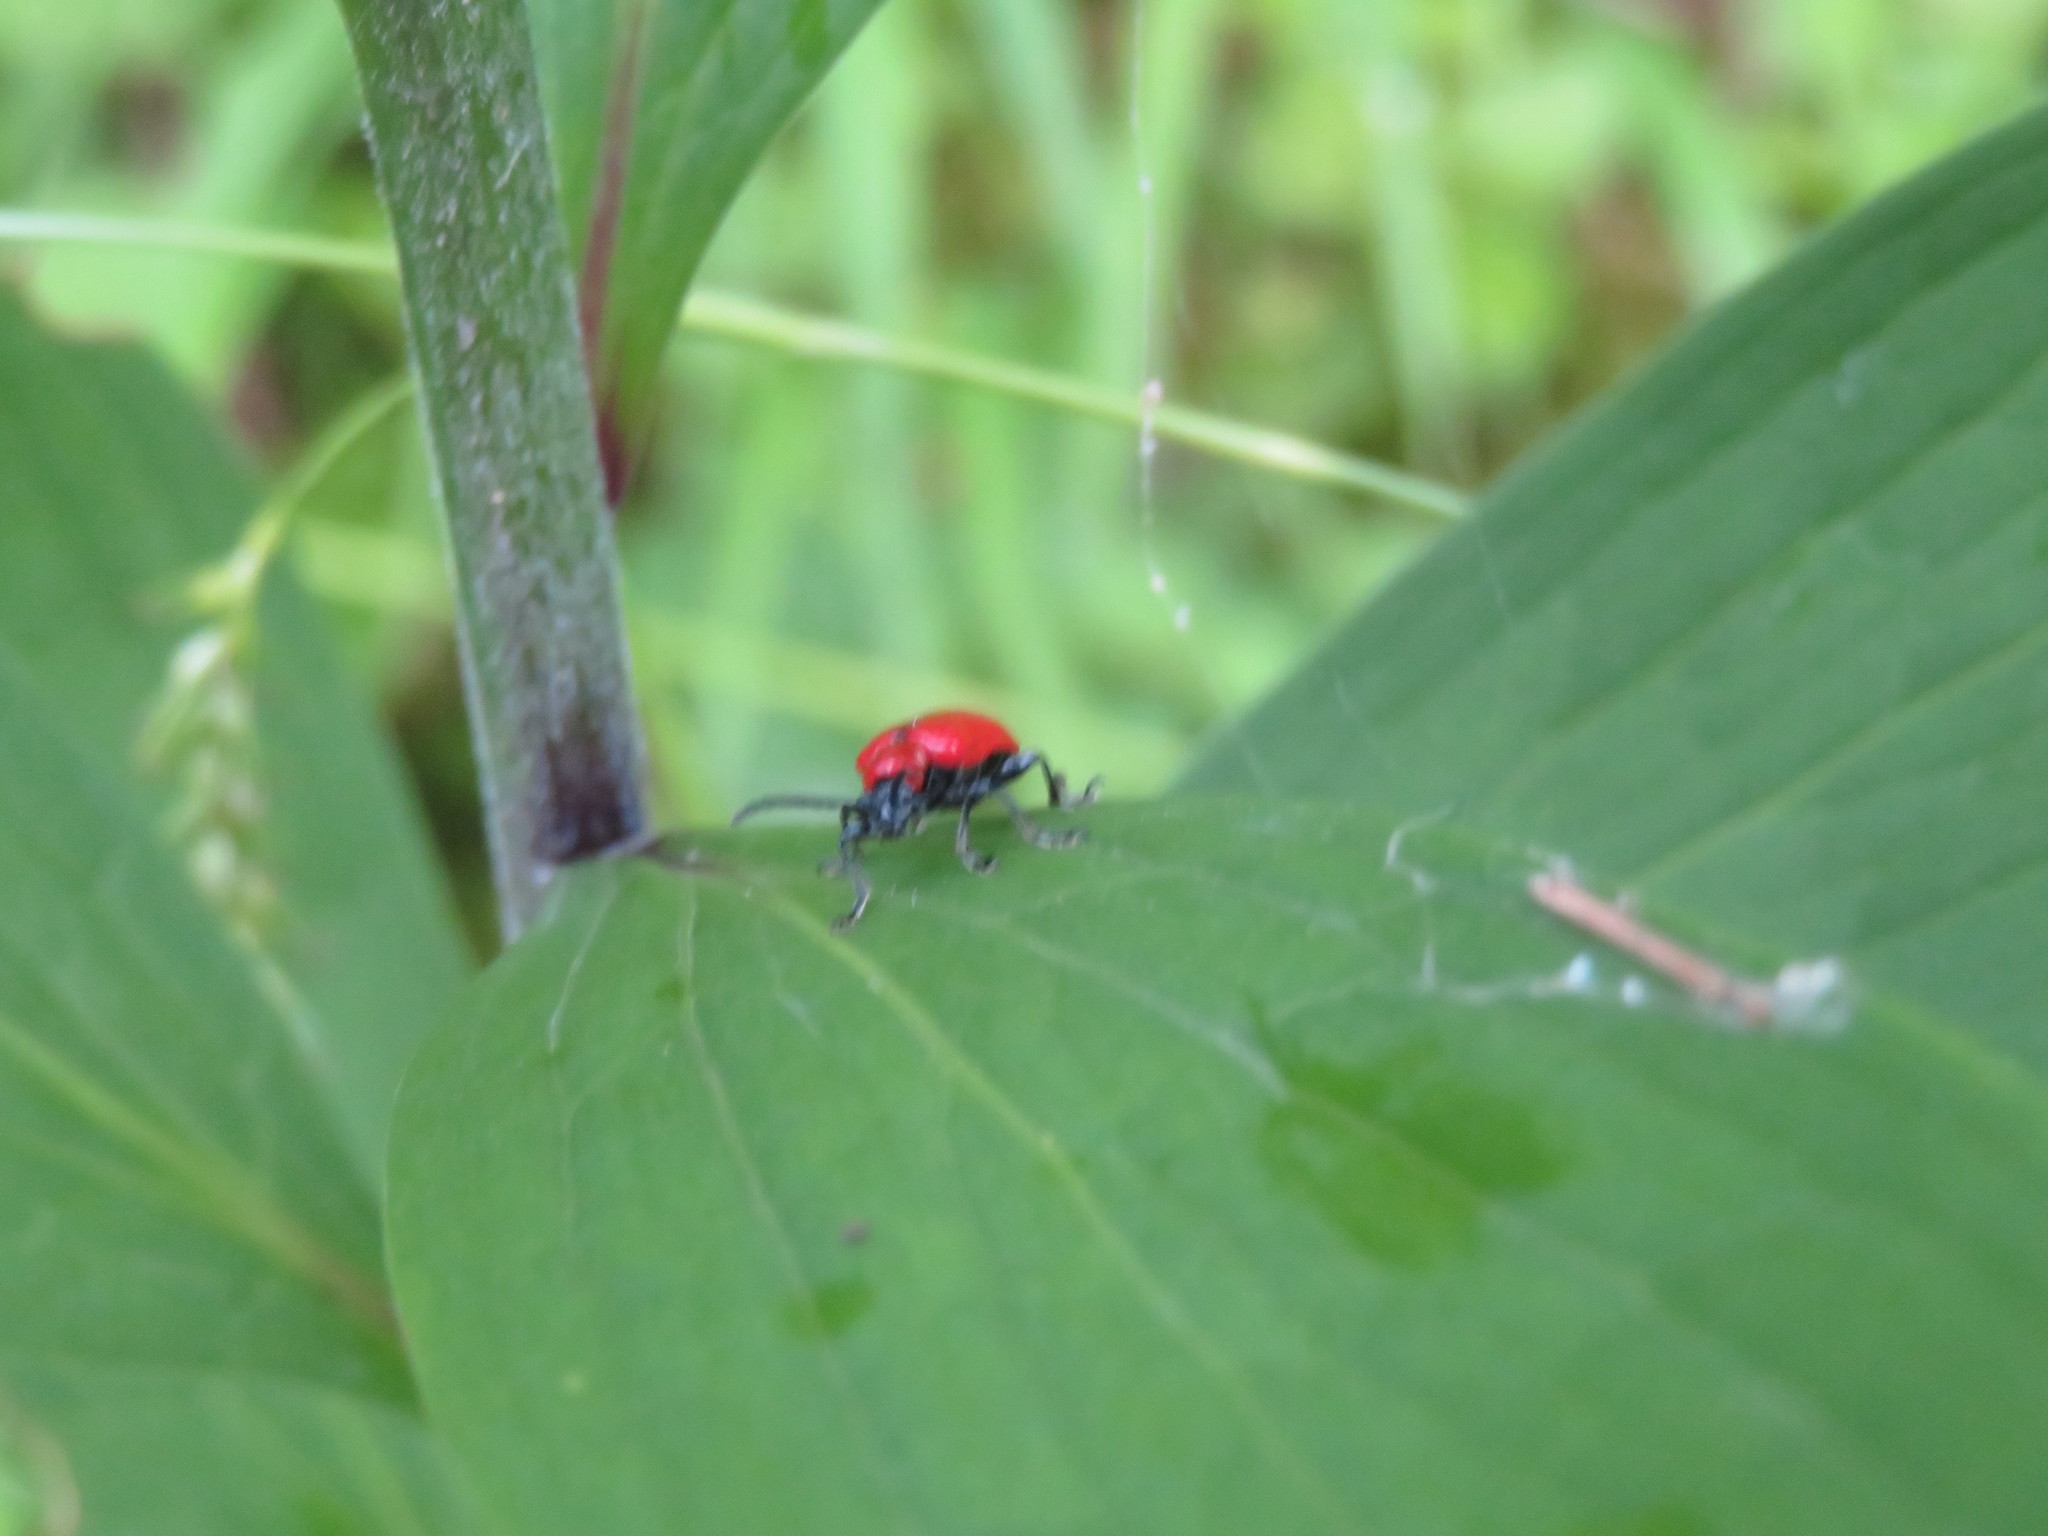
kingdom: Animalia
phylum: Arthropoda
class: Insecta
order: Coleoptera
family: Chrysomelidae
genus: Lilioceris
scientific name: Lilioceris lilii
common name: Lily beetle
